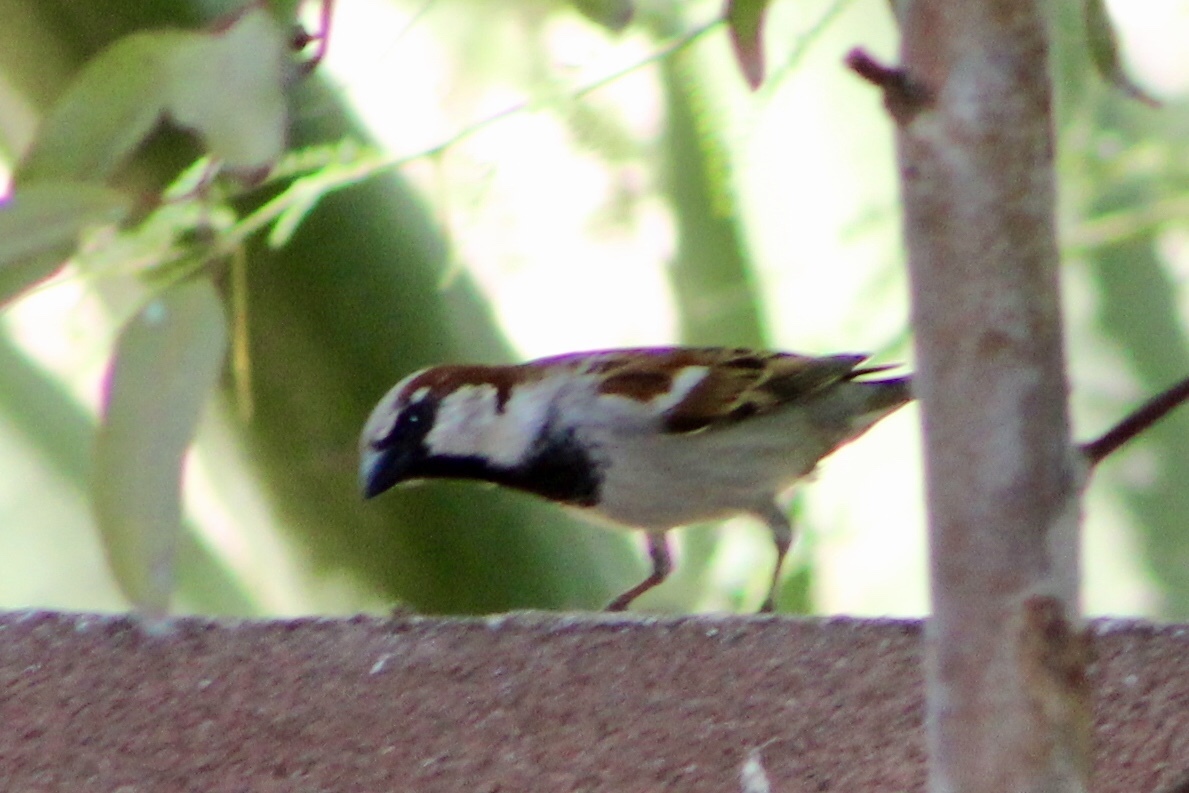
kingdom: Animalia
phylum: Chordata
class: Aves
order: Passeriformes
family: Passeridae
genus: Passer
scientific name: Passer domesticus
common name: House sparrow
